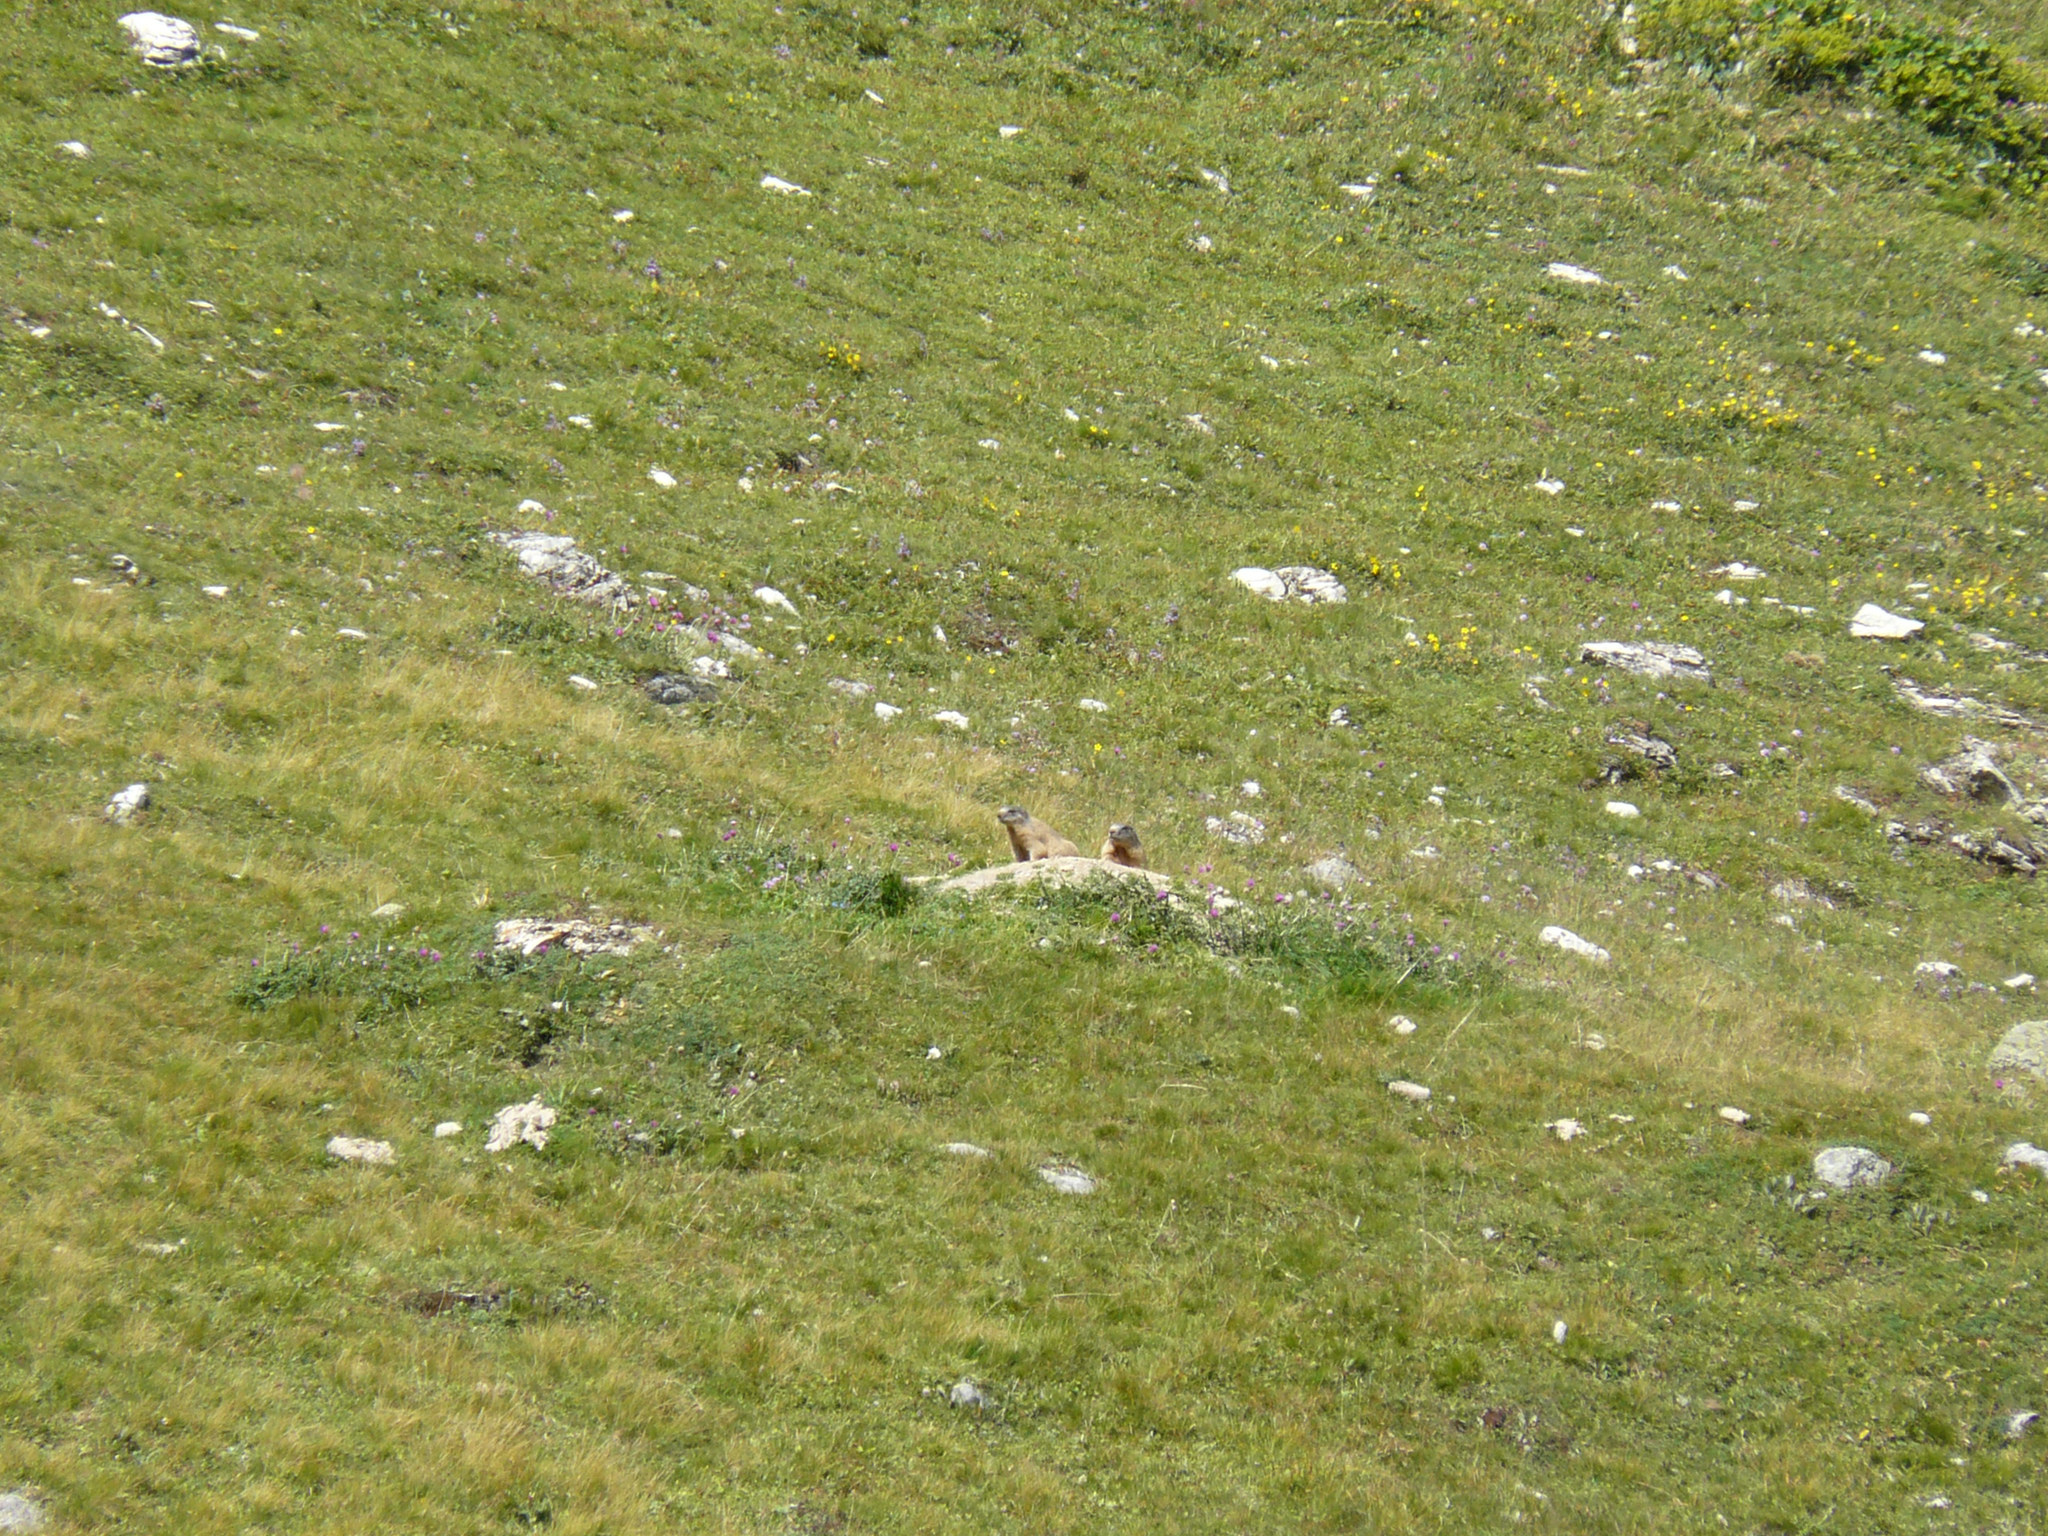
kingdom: Animalia
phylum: Chordata
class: Mammalia
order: Rodentia
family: Sciuridae
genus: Marmota
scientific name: Marmota marmota
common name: Alpine marmot
